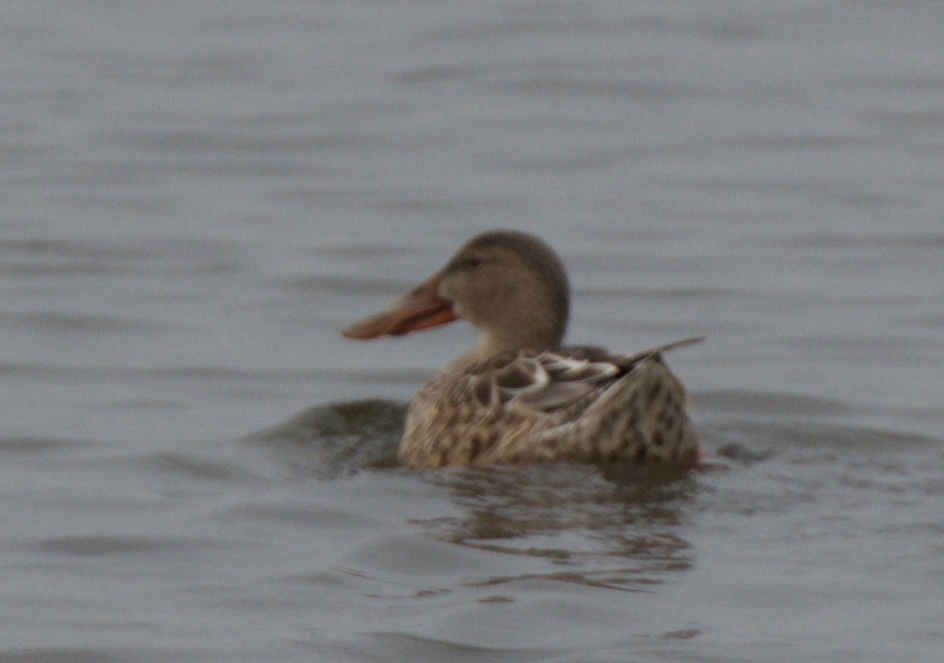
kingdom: Animalia
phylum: Chordata
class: Aves
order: Anseriformes
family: Anatidae
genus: Spatula
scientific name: Spatula clypeata
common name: Northern shoveler
